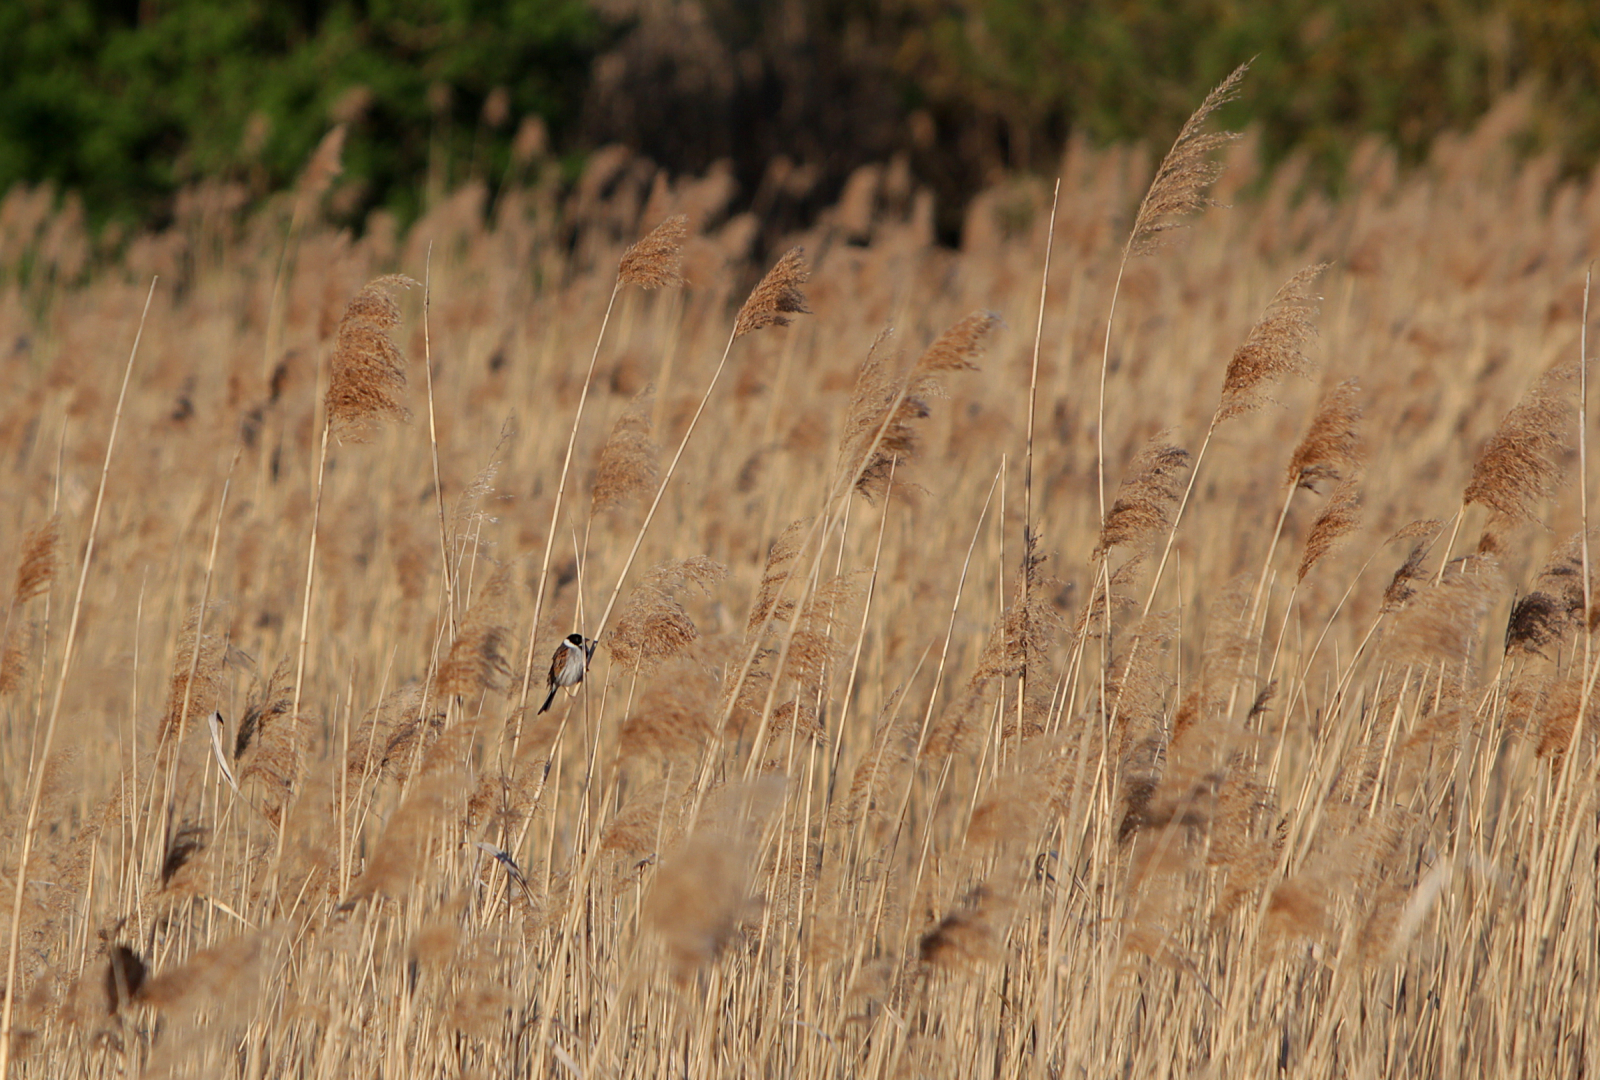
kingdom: Animalia
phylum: Chordata
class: Aves
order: Passeriformes
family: Emberizidae
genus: Emberiza
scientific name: Emberiza schoeniclus
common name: Reed bunting
